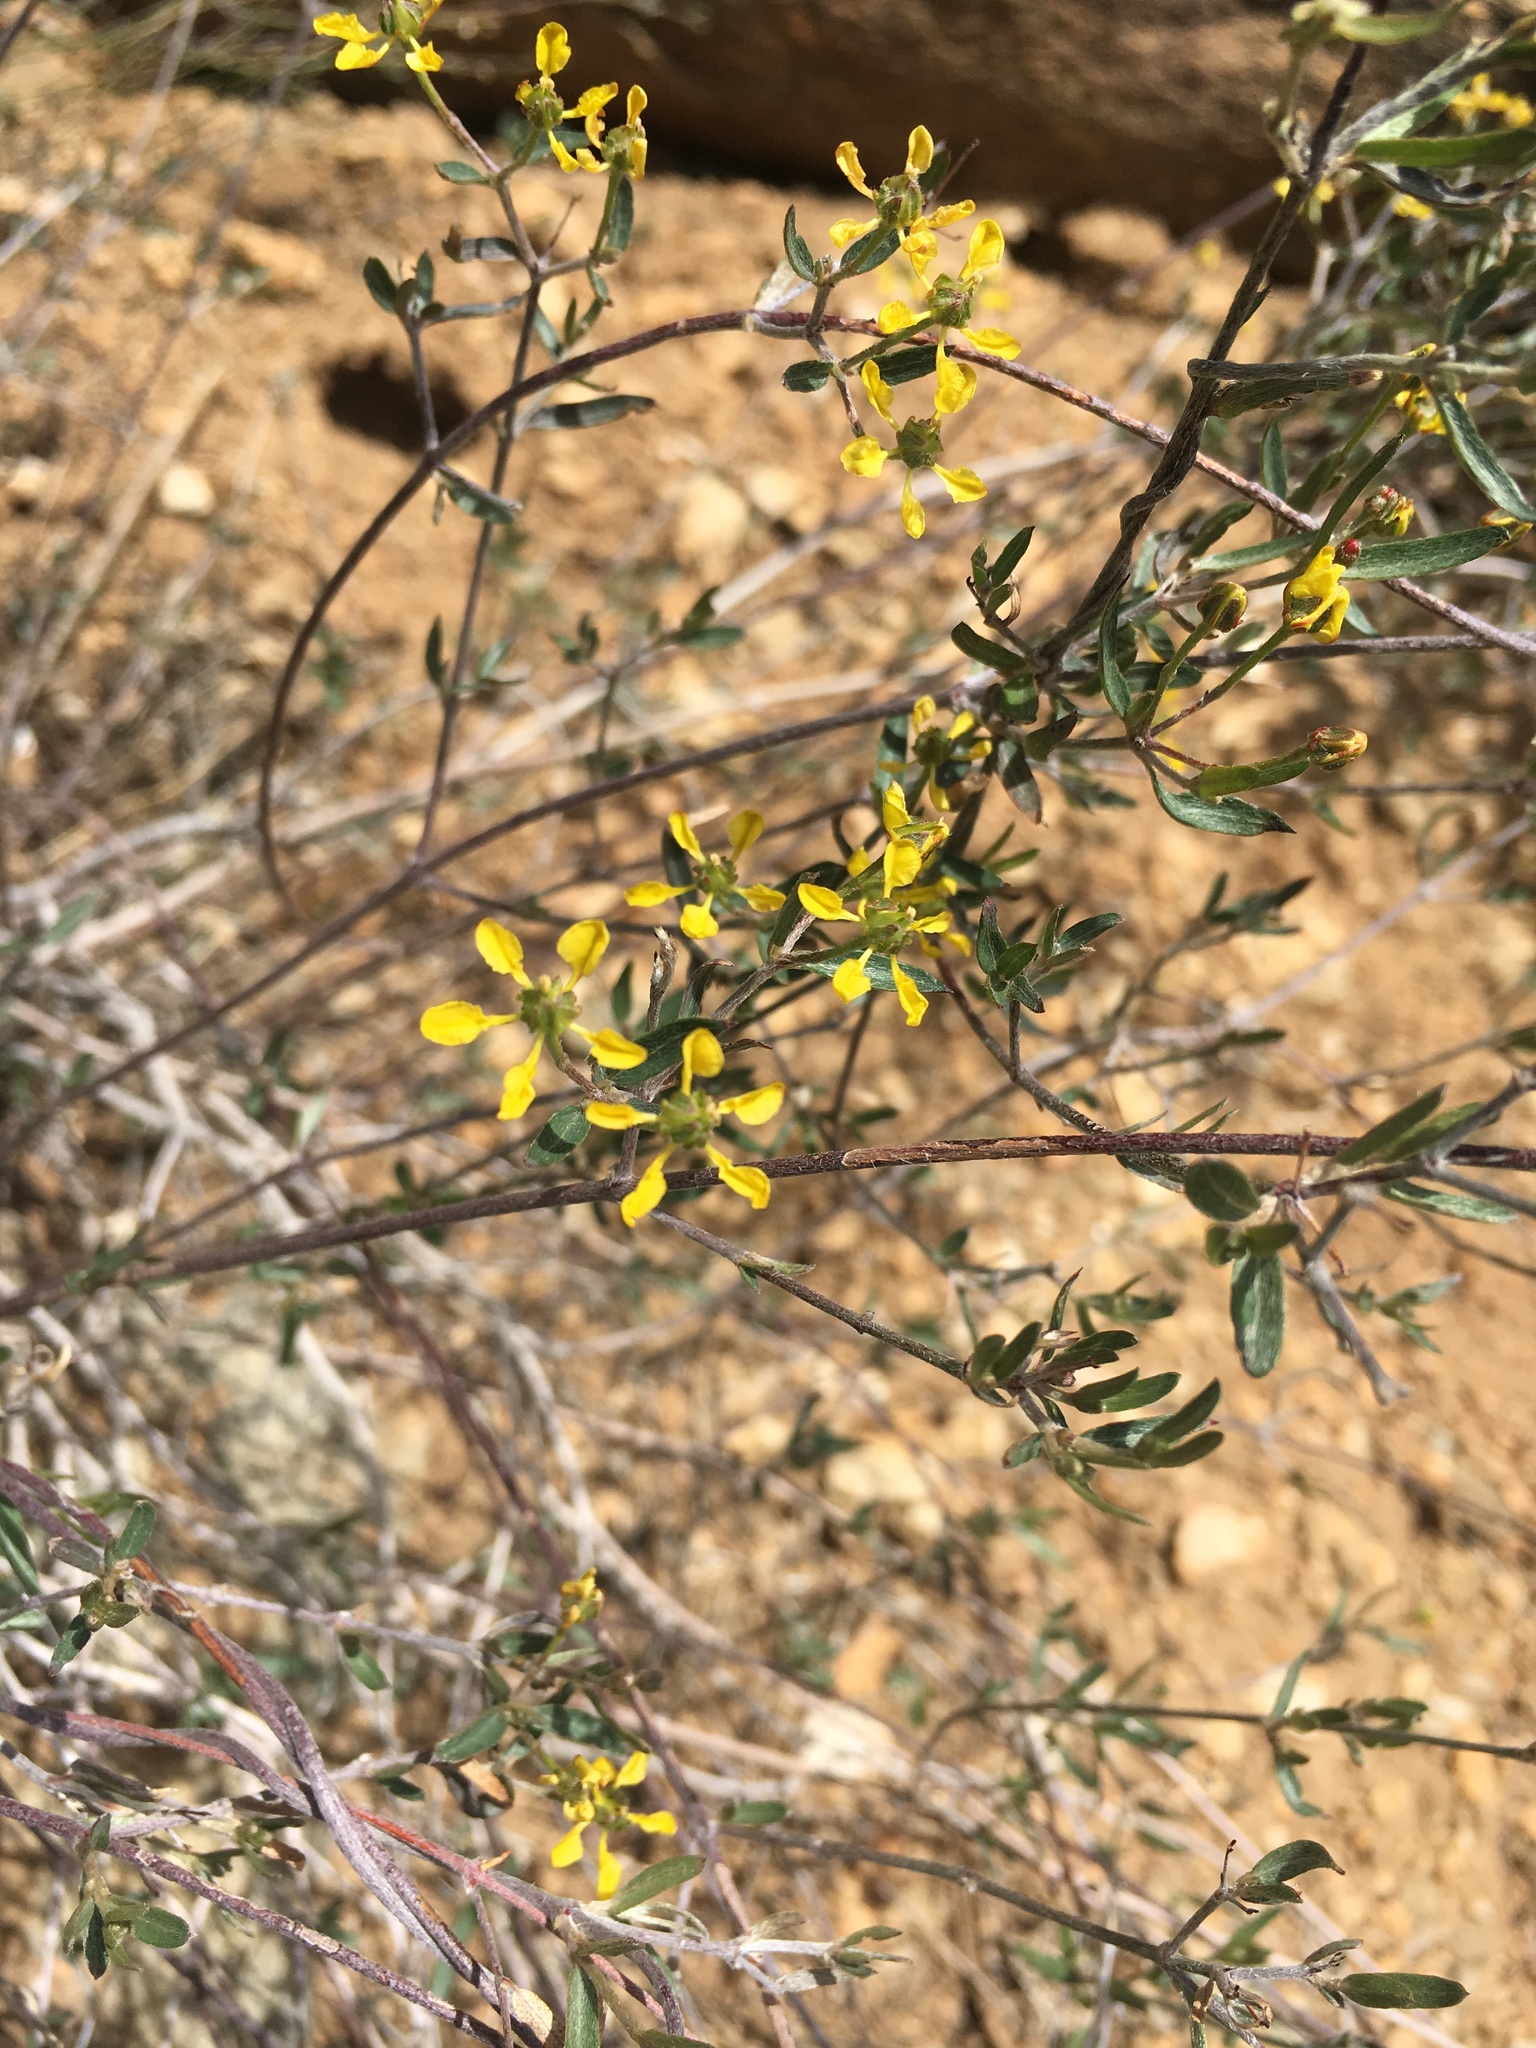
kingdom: Plantae
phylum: Tracheophyta
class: Magnoliopsida
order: Malpighiales
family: Malpighiaceae
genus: Cottsia
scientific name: Cottsia gracilis
